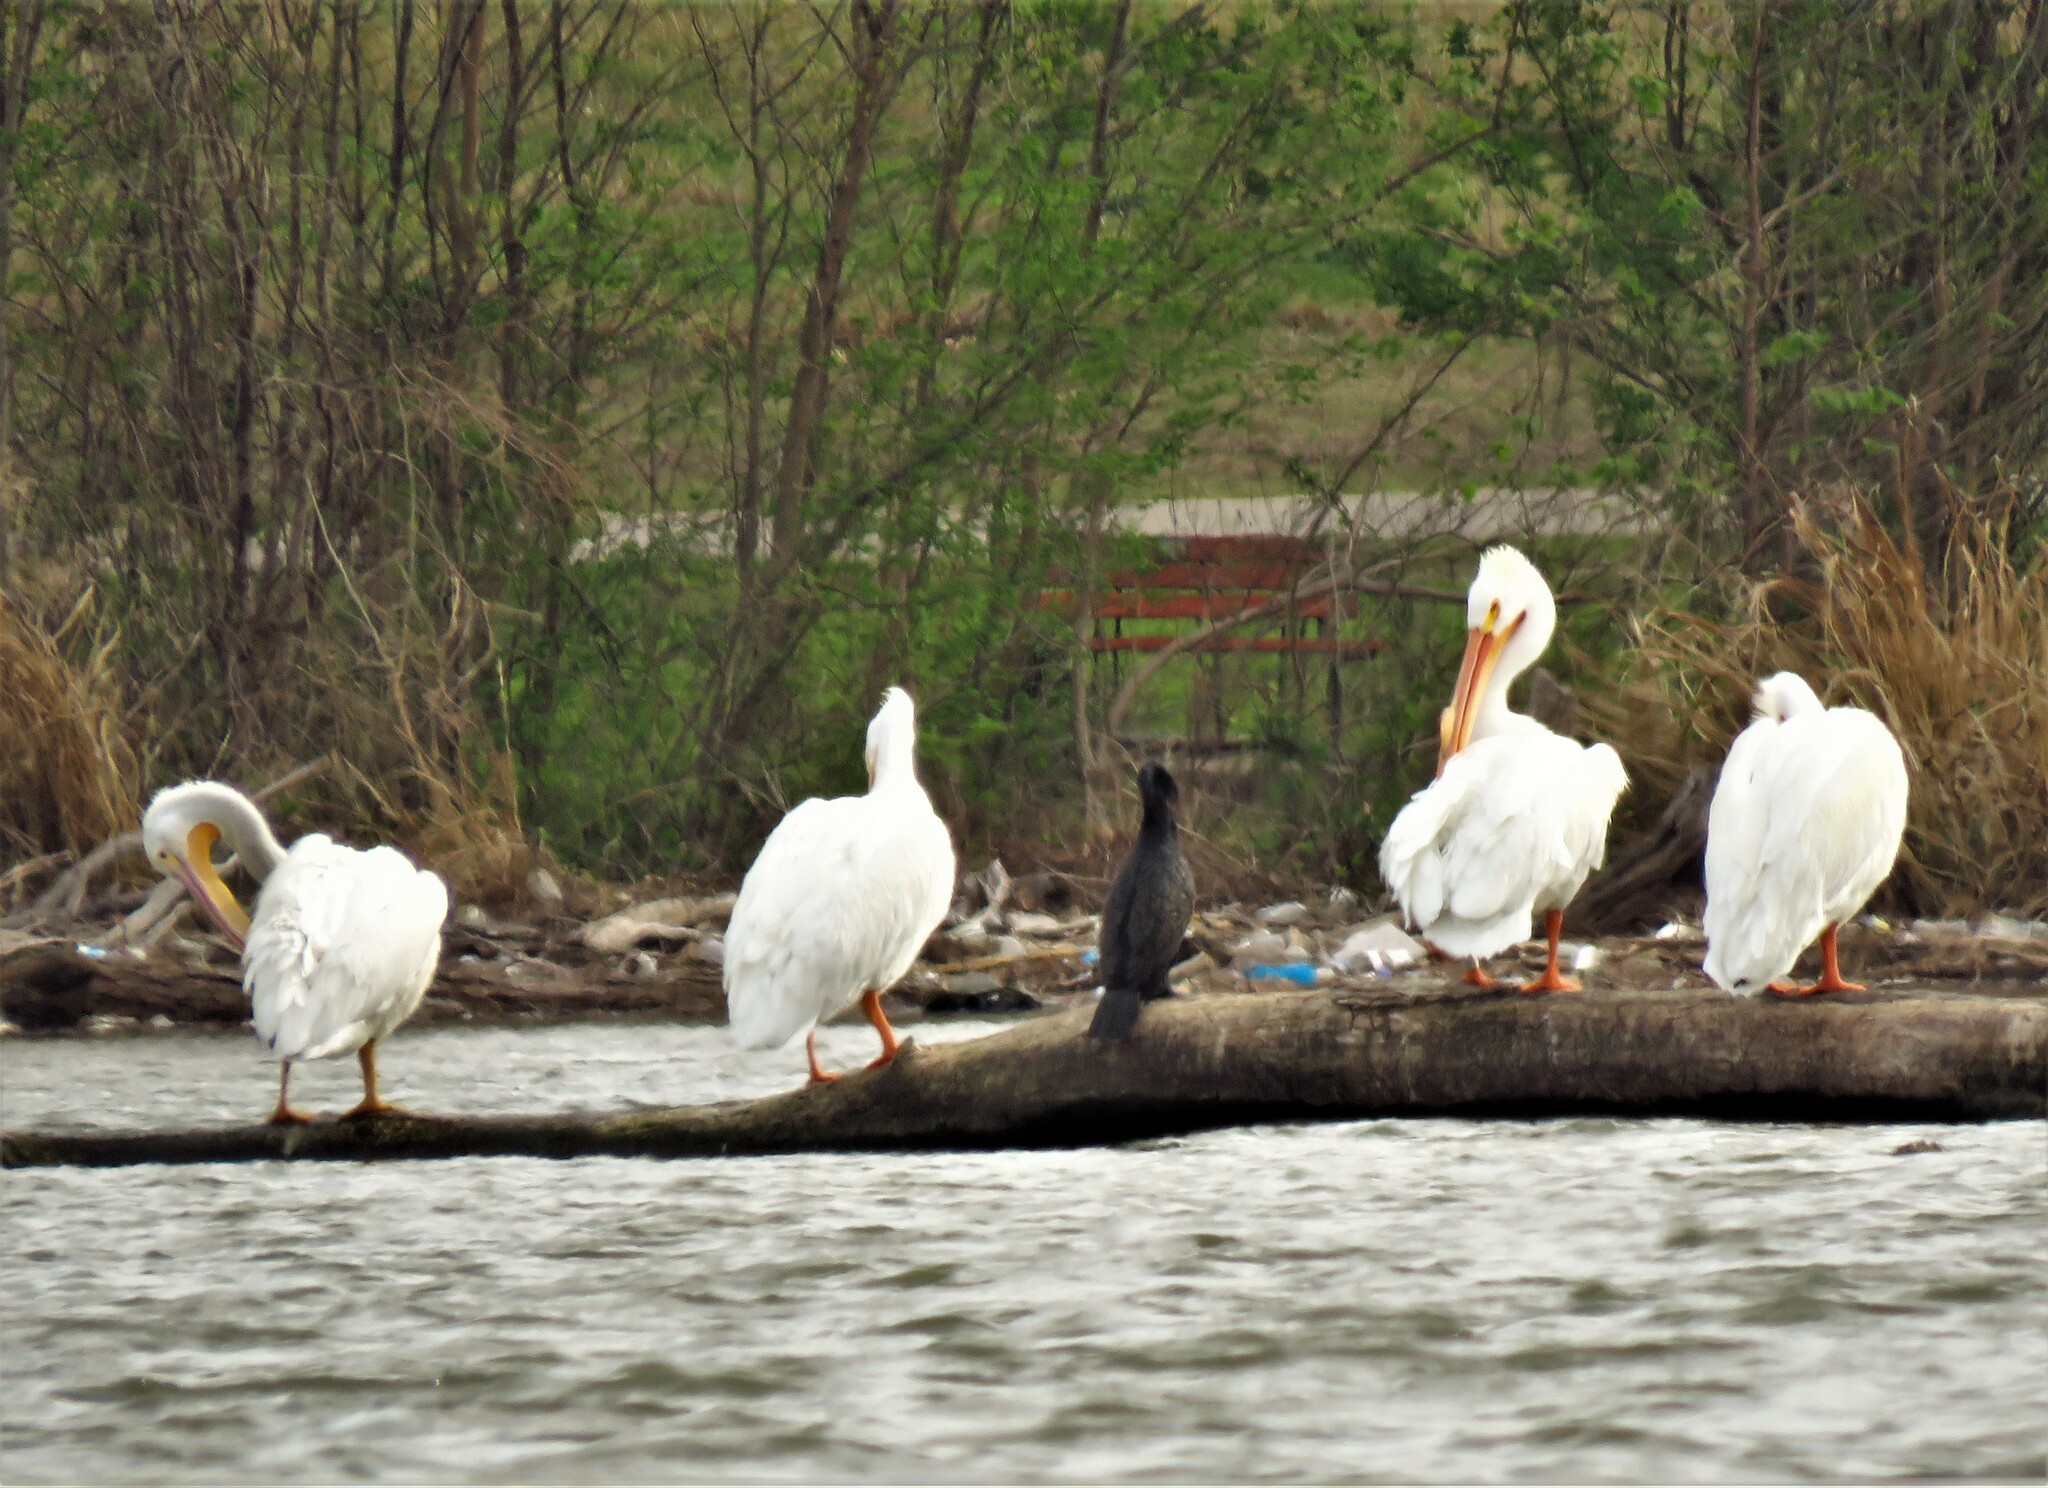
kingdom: Animalia
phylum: Chordata
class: Aves
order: Pelecaniformes
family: Pelecanidae
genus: Pelecanus
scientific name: Pelecanus erythrorhynchos
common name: American white pelican
